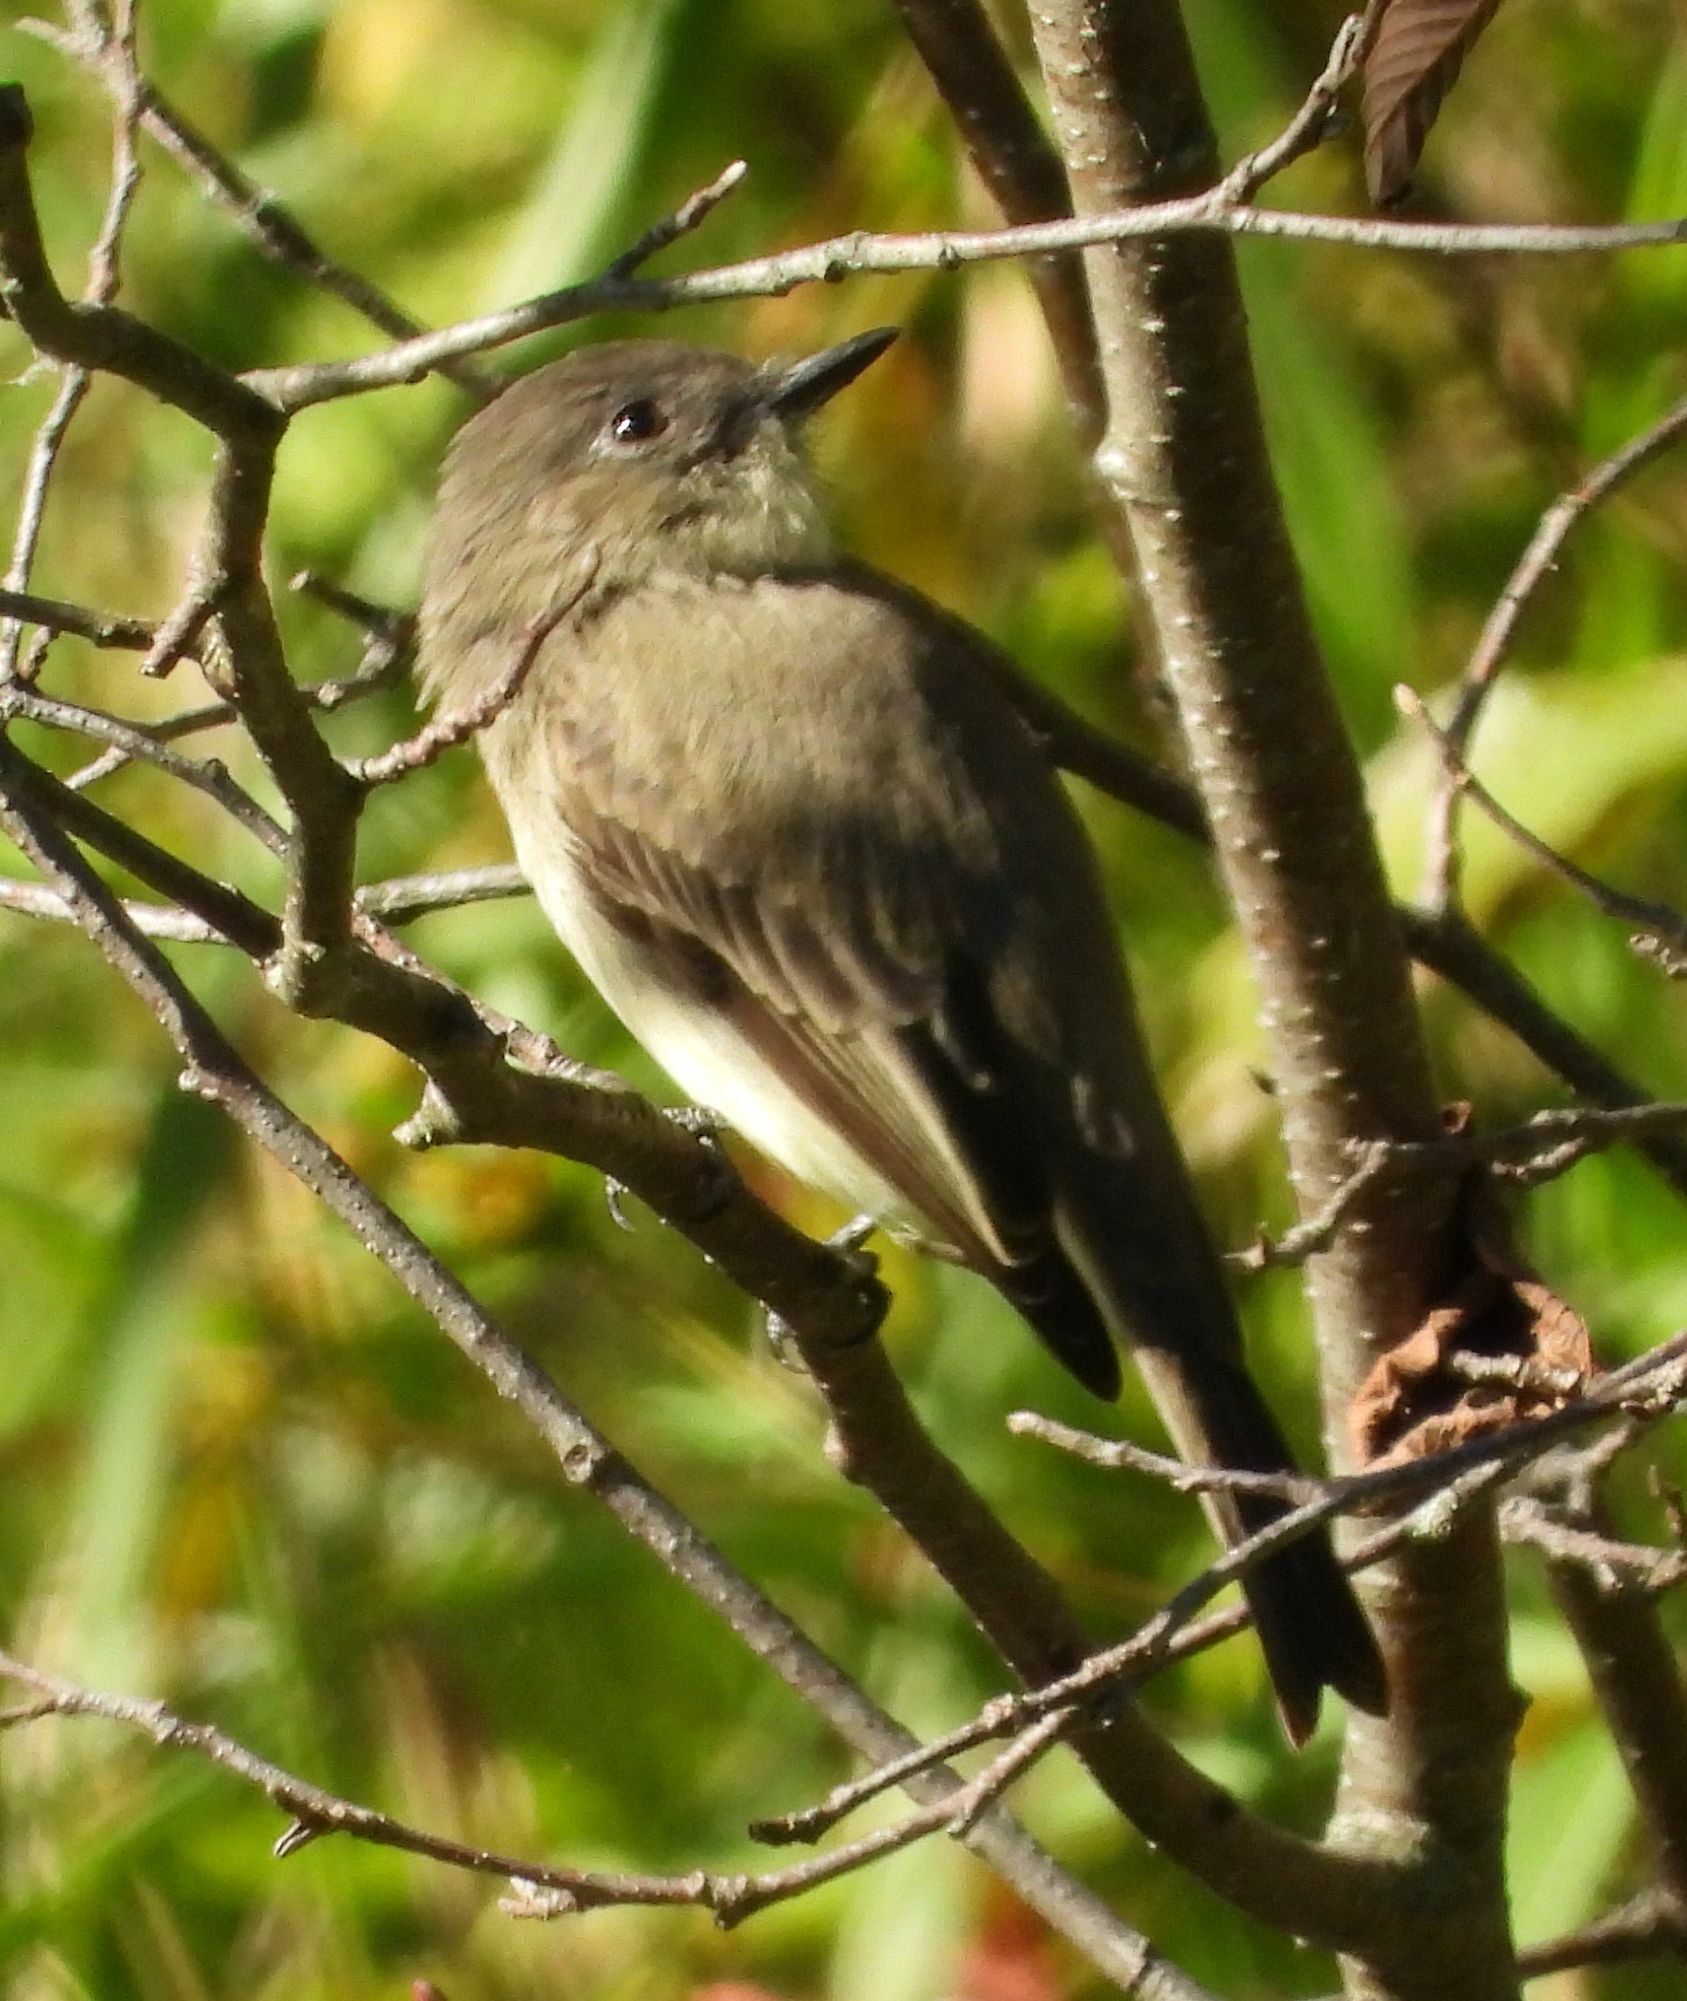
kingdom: Animalia
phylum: Chordata
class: Aves
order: Passeriformes
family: Tyrannidae
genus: Sayornis
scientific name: Sayornis phoebe
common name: Eastern phoebe
